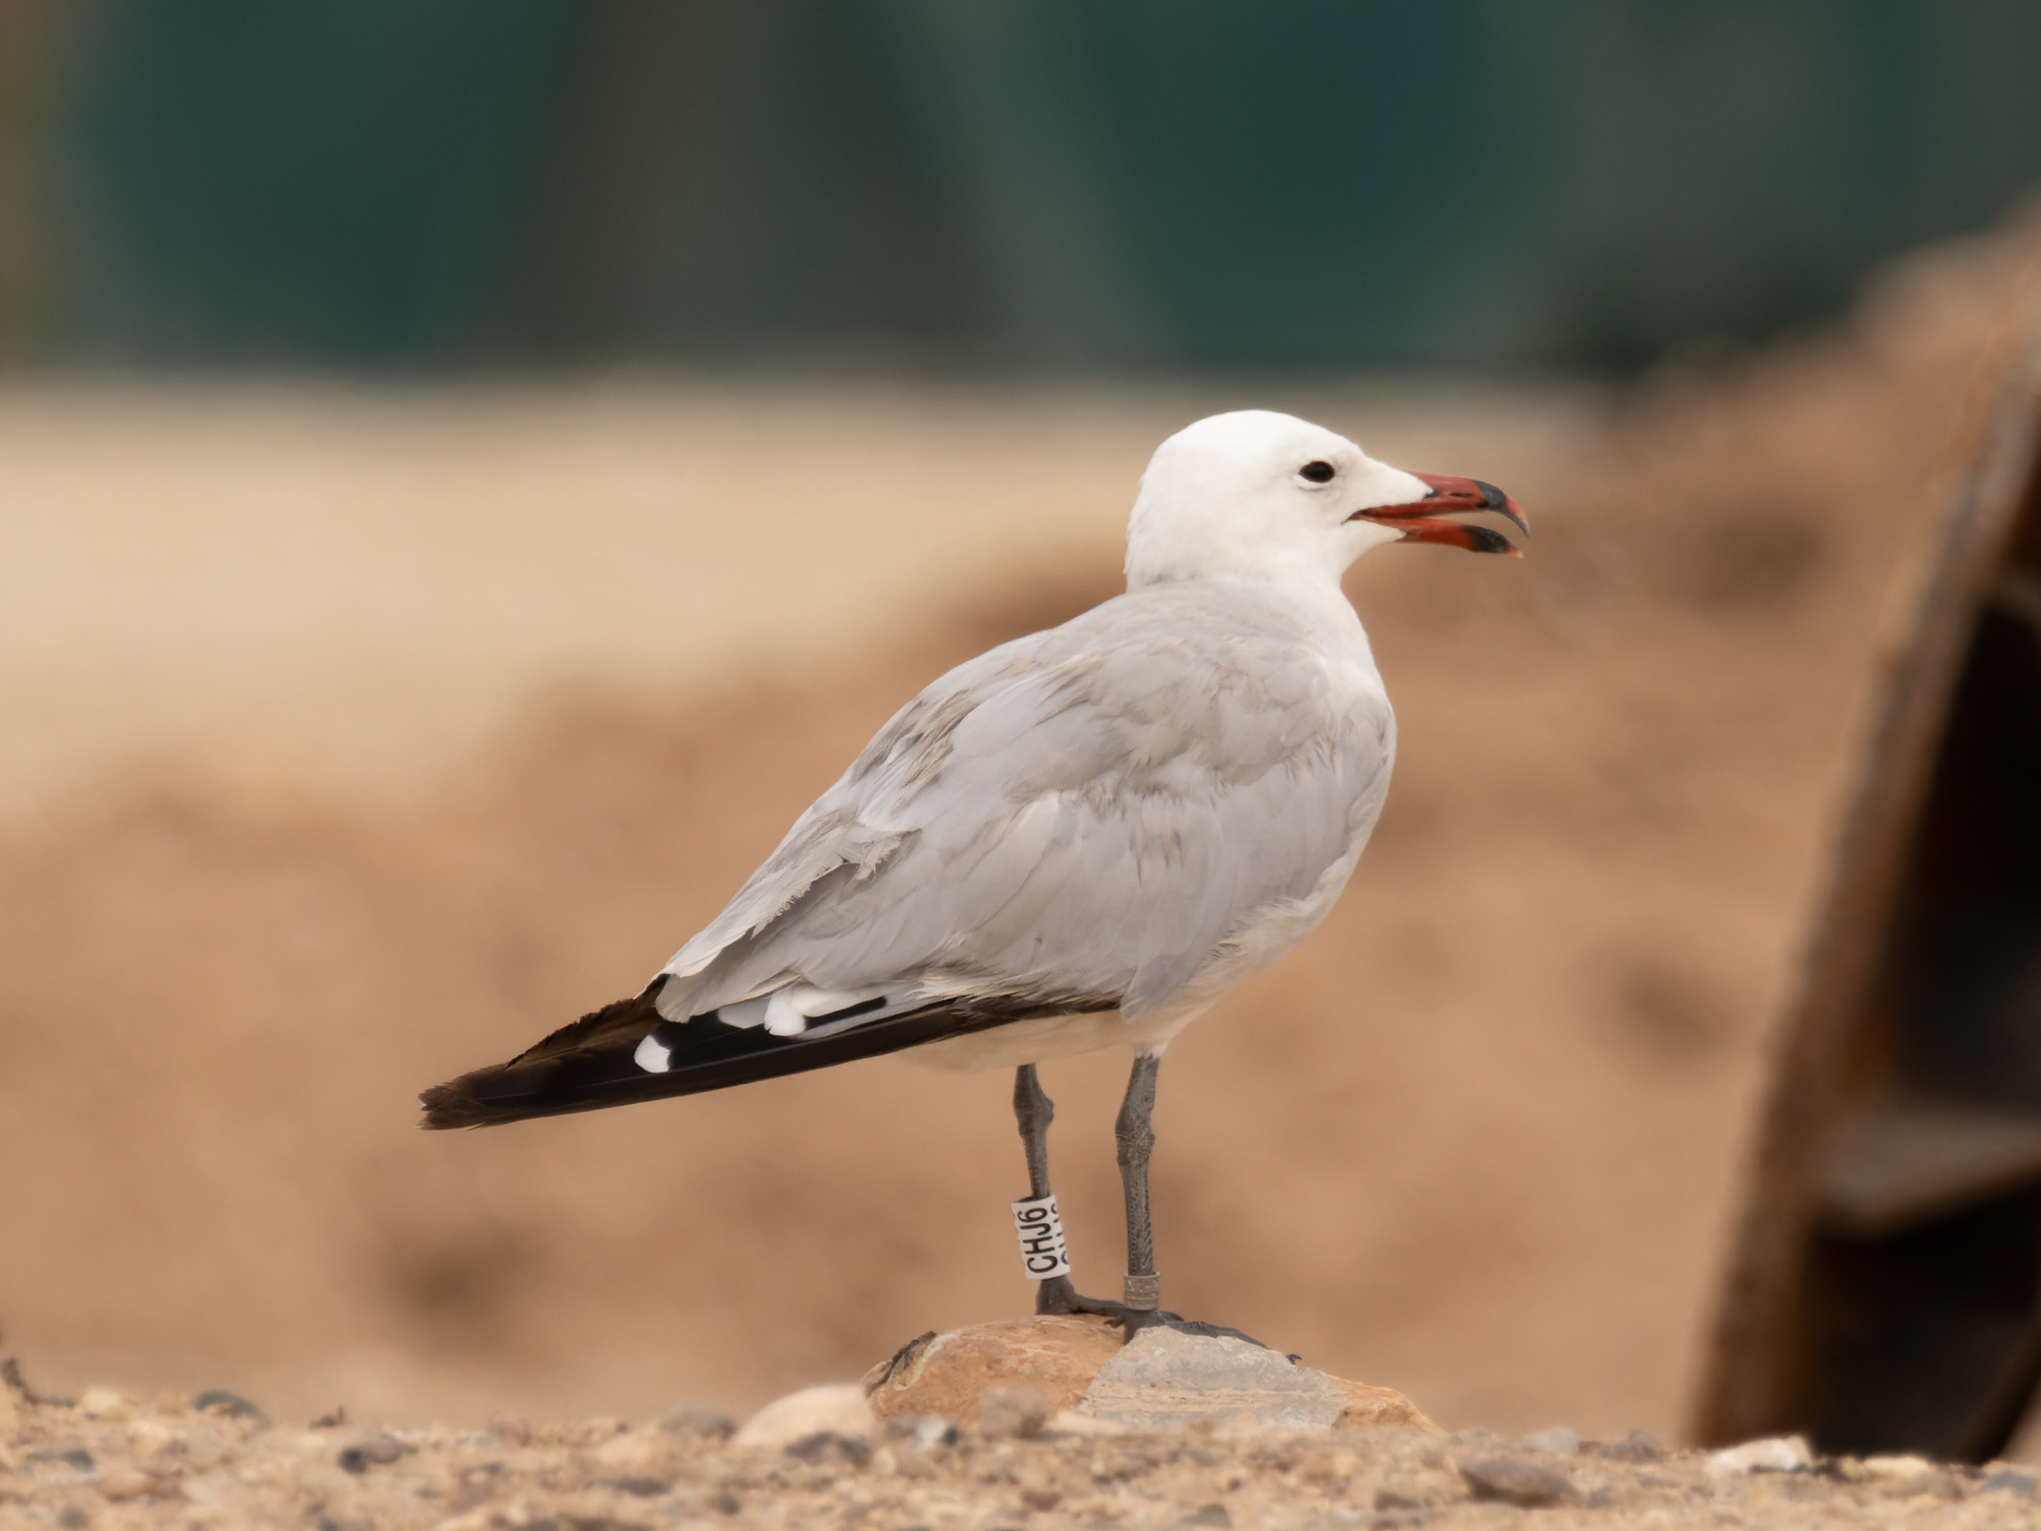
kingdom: Animalia
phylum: Chordata
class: Aves
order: Charadriiformes
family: Laridae
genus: Ichthyaetus
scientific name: Ichthyaetus audouinii
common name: Audouin's gull
